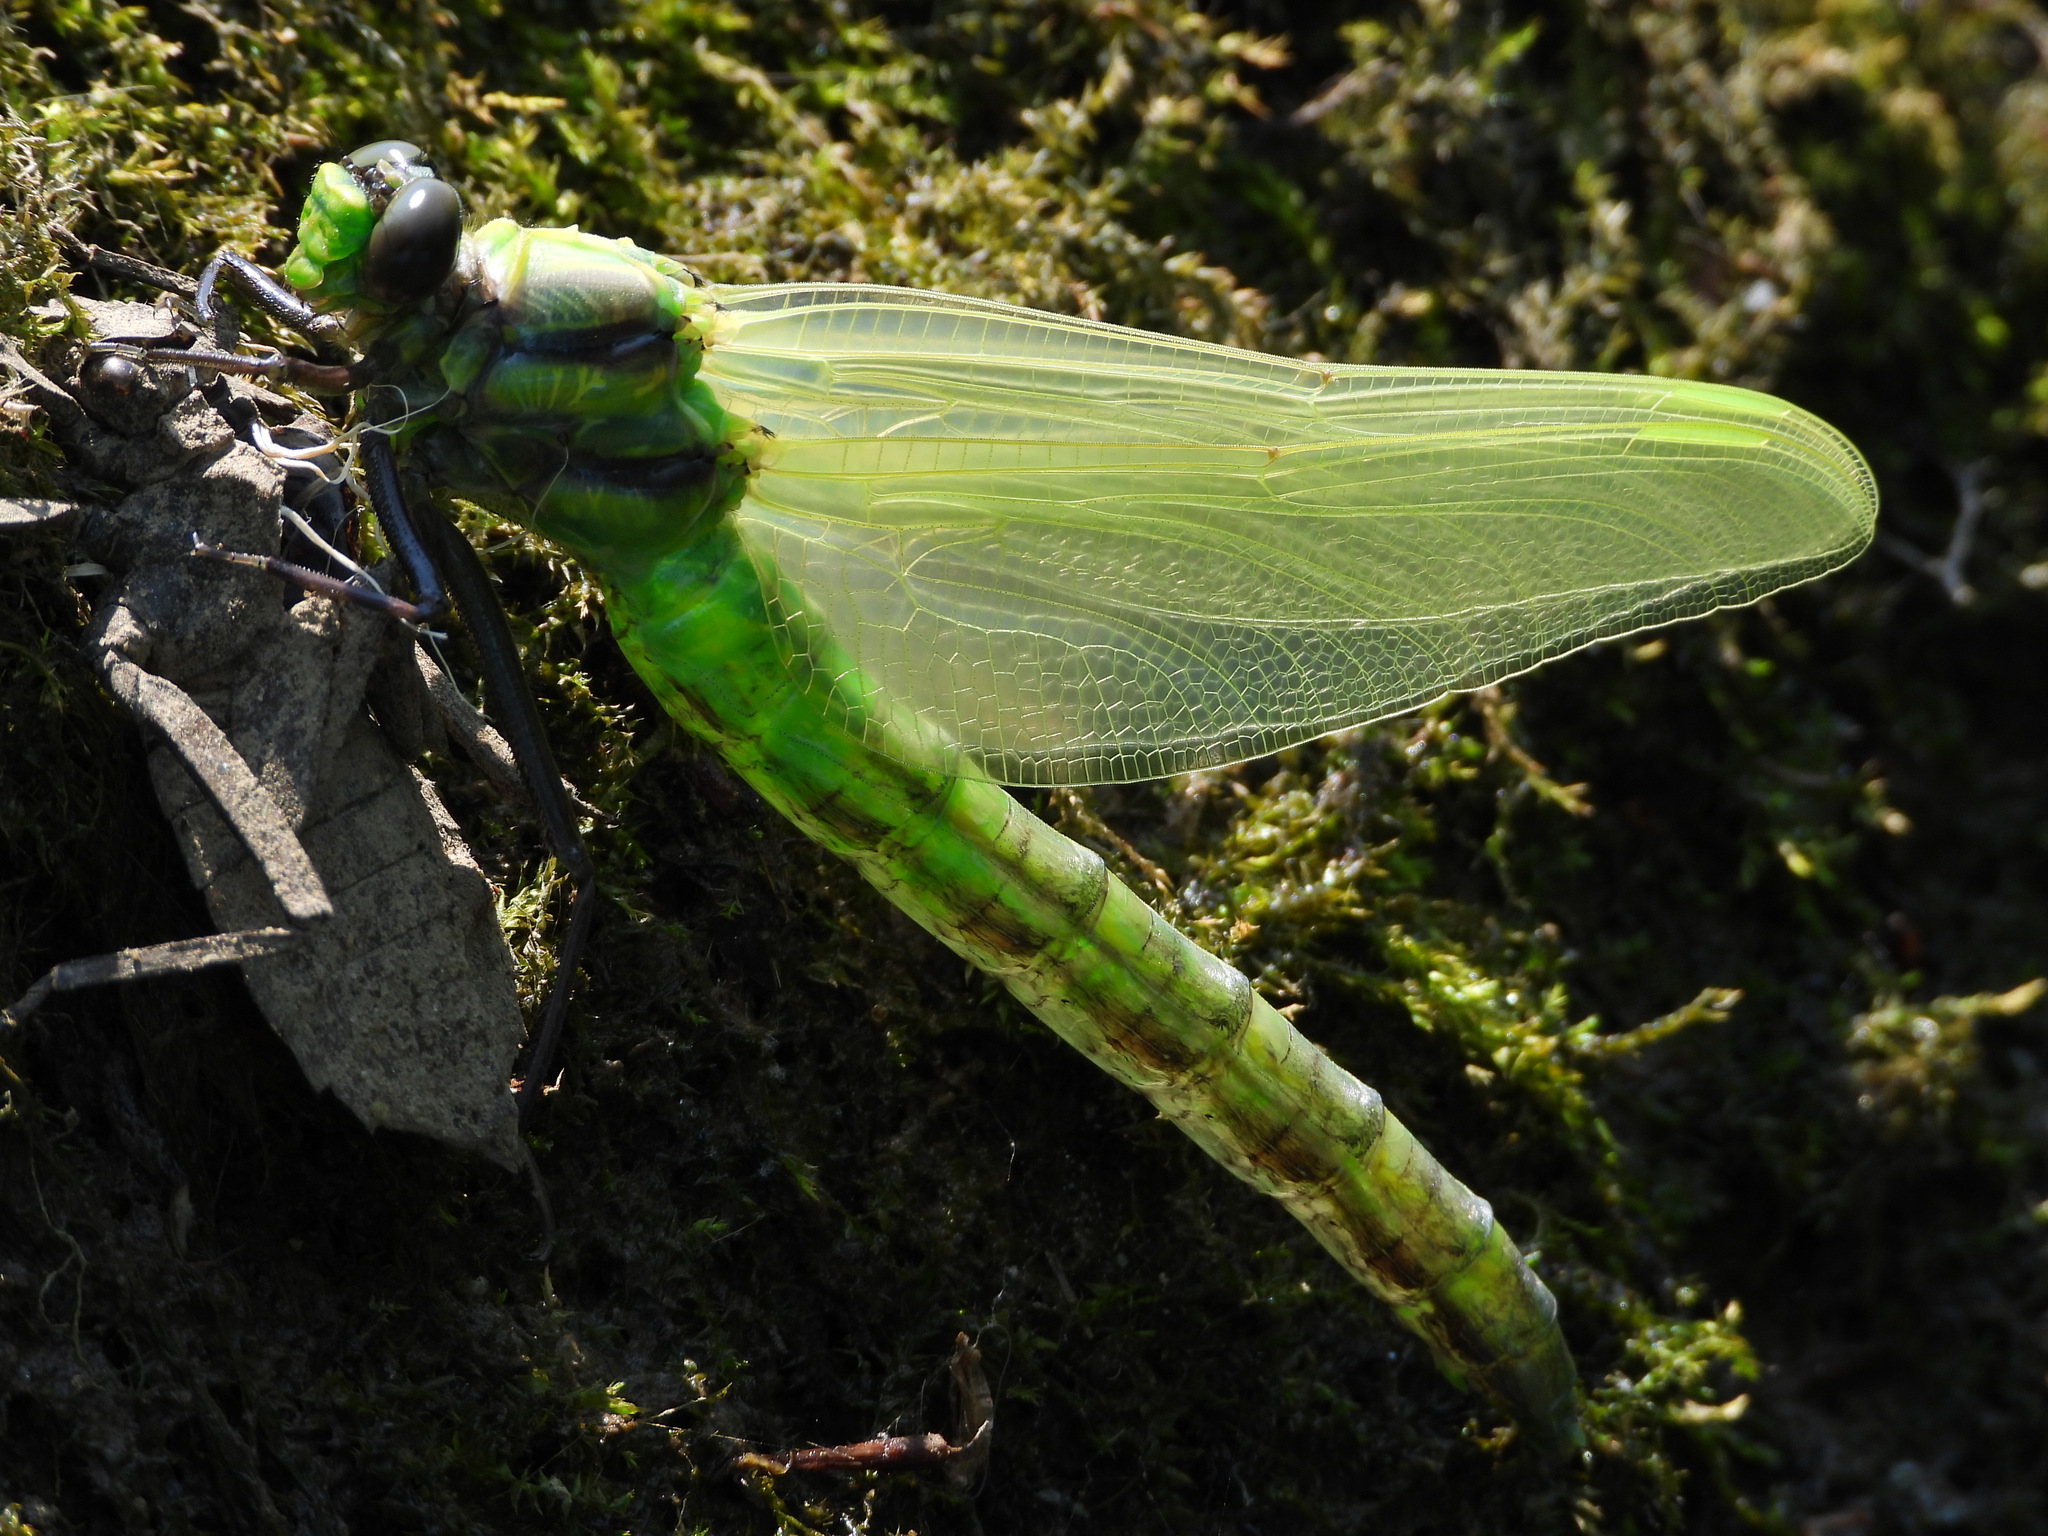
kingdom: Animalia
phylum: Arthropoda
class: Insecta
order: Odonata
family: Gomphidae
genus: Hagenius
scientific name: Hagenius brevistylus
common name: Dragonhunter
